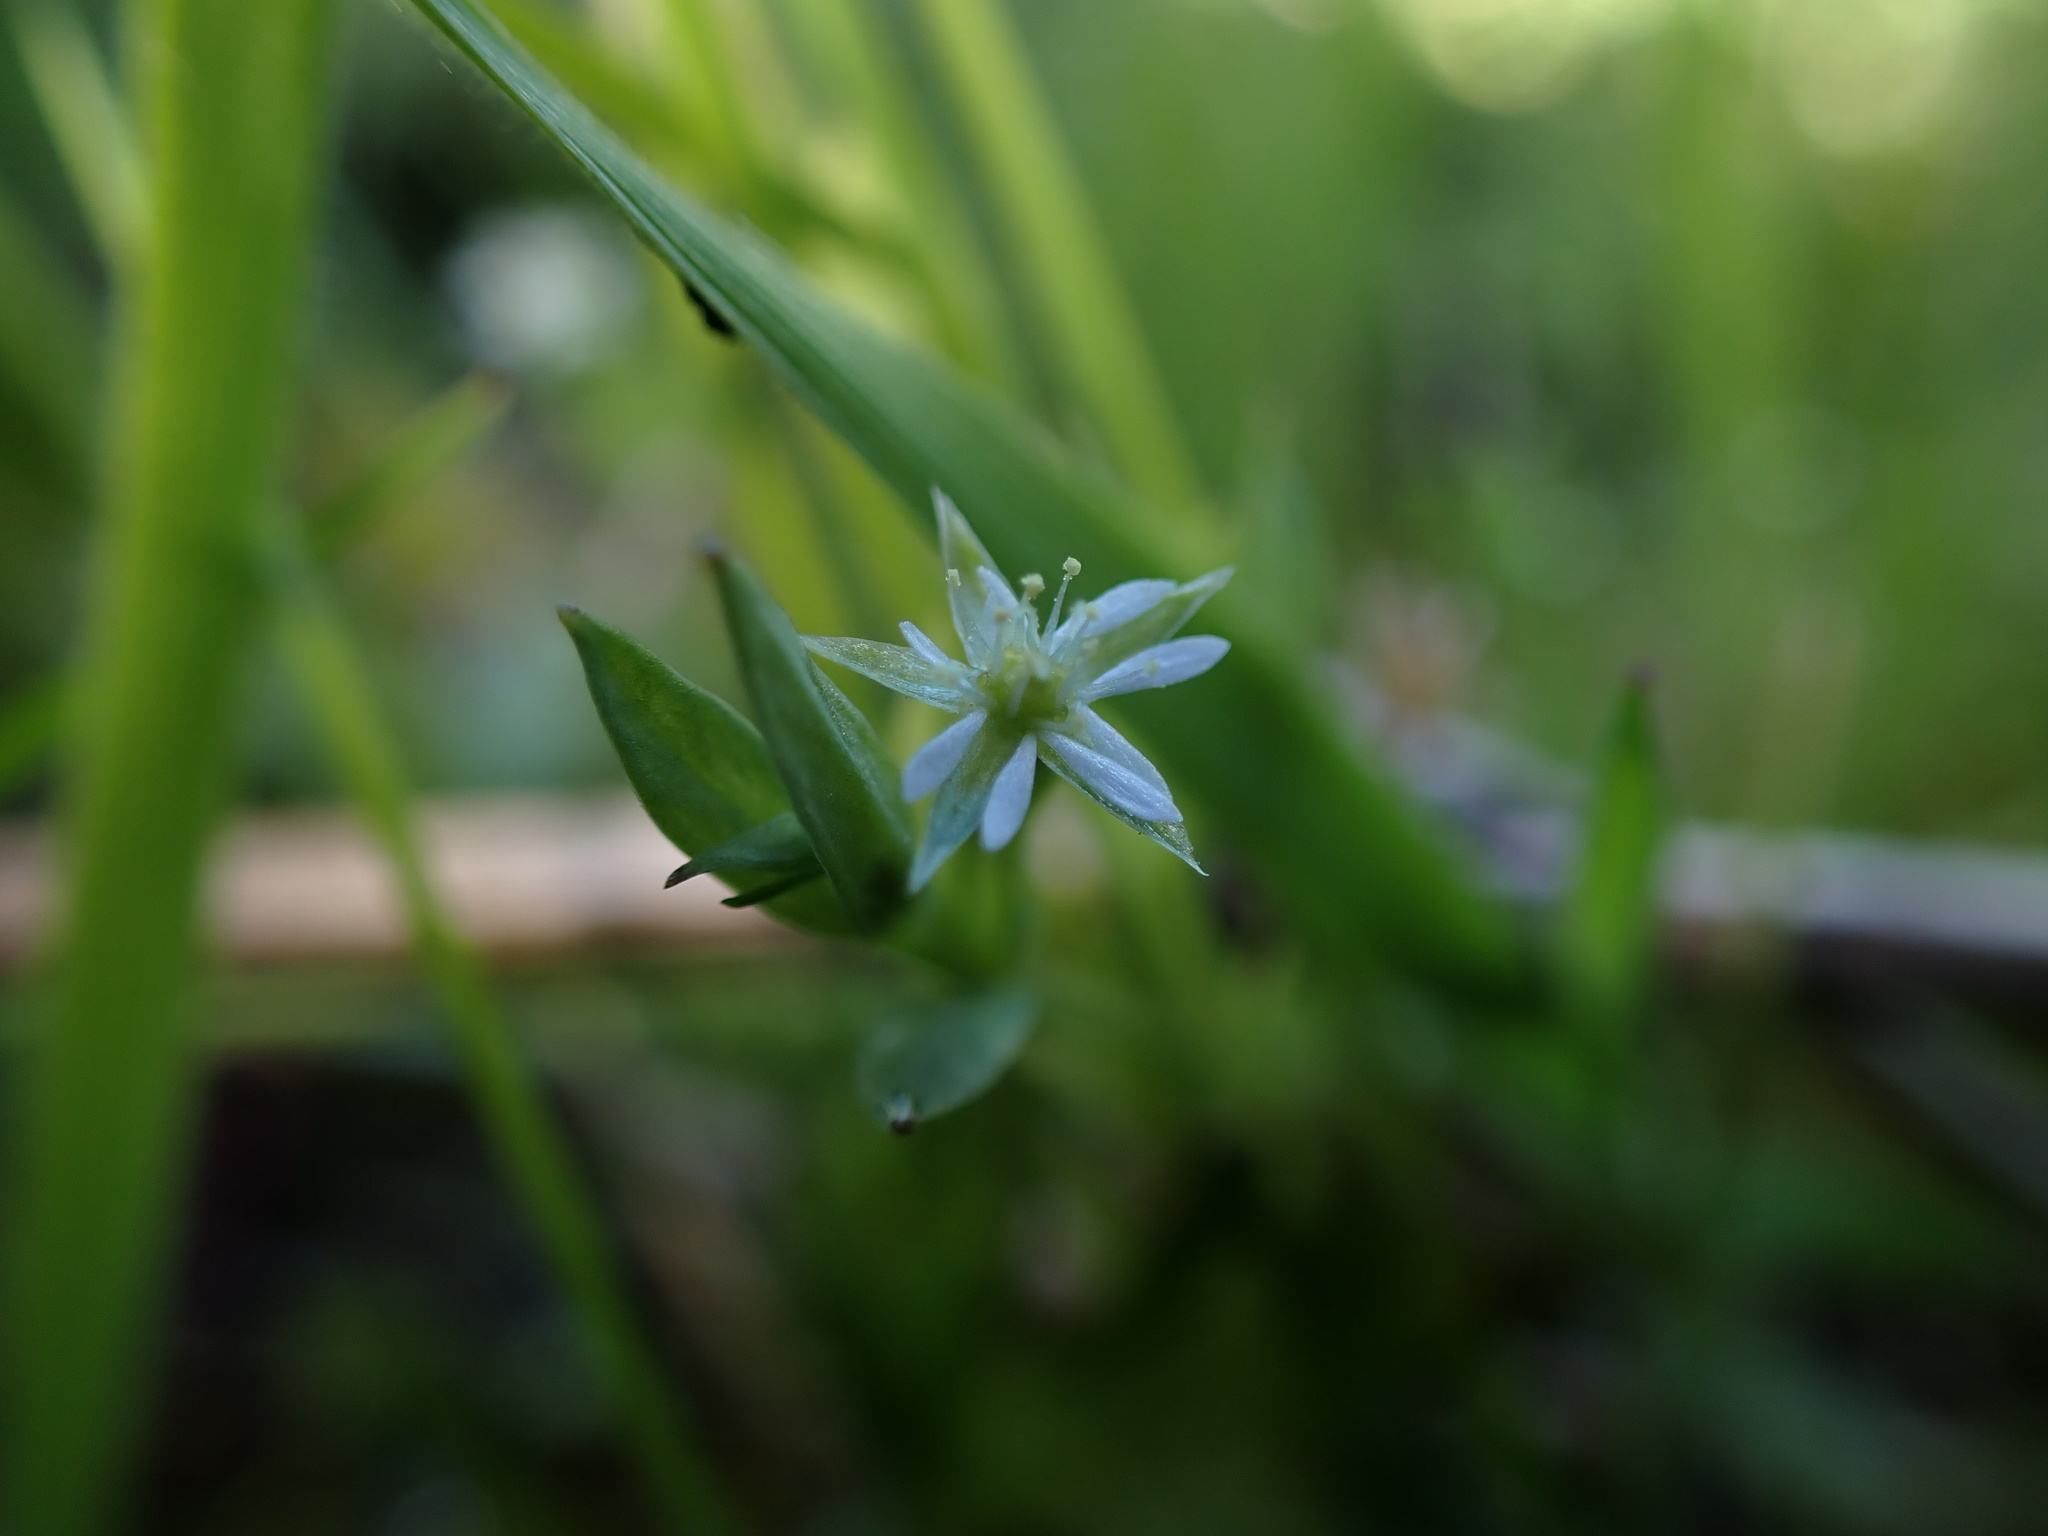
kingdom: Plantae
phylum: Tracheophyta
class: Magnoliopsida
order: Caryophyllales
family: Caryophyllaceae
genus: Stellaria
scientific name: Stellaria alsine
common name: Bog stitchwort
